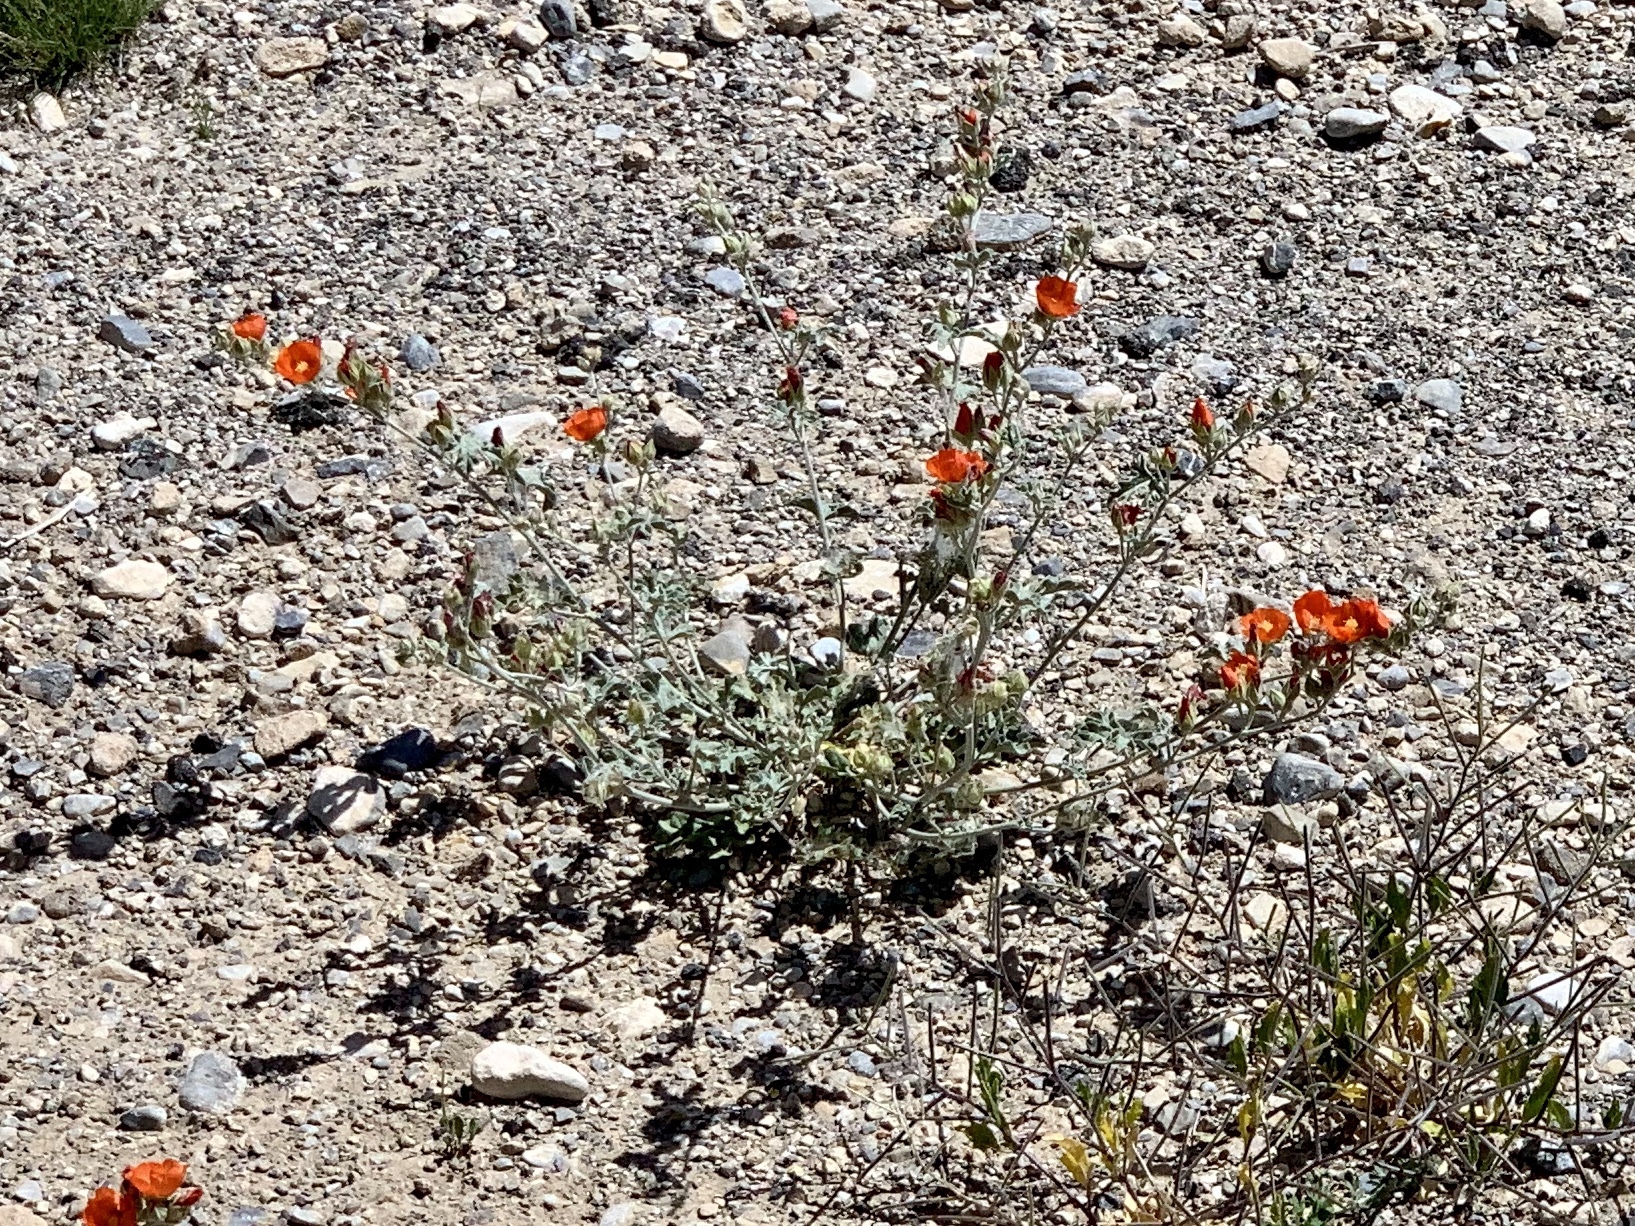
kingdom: Plantae
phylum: Tracheophyta
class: Magnoliopsida
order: Malvales
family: Malvaceae
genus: Sphaeralcea
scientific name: Sphaeralcea ambigua
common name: Apricot globe-mallow
